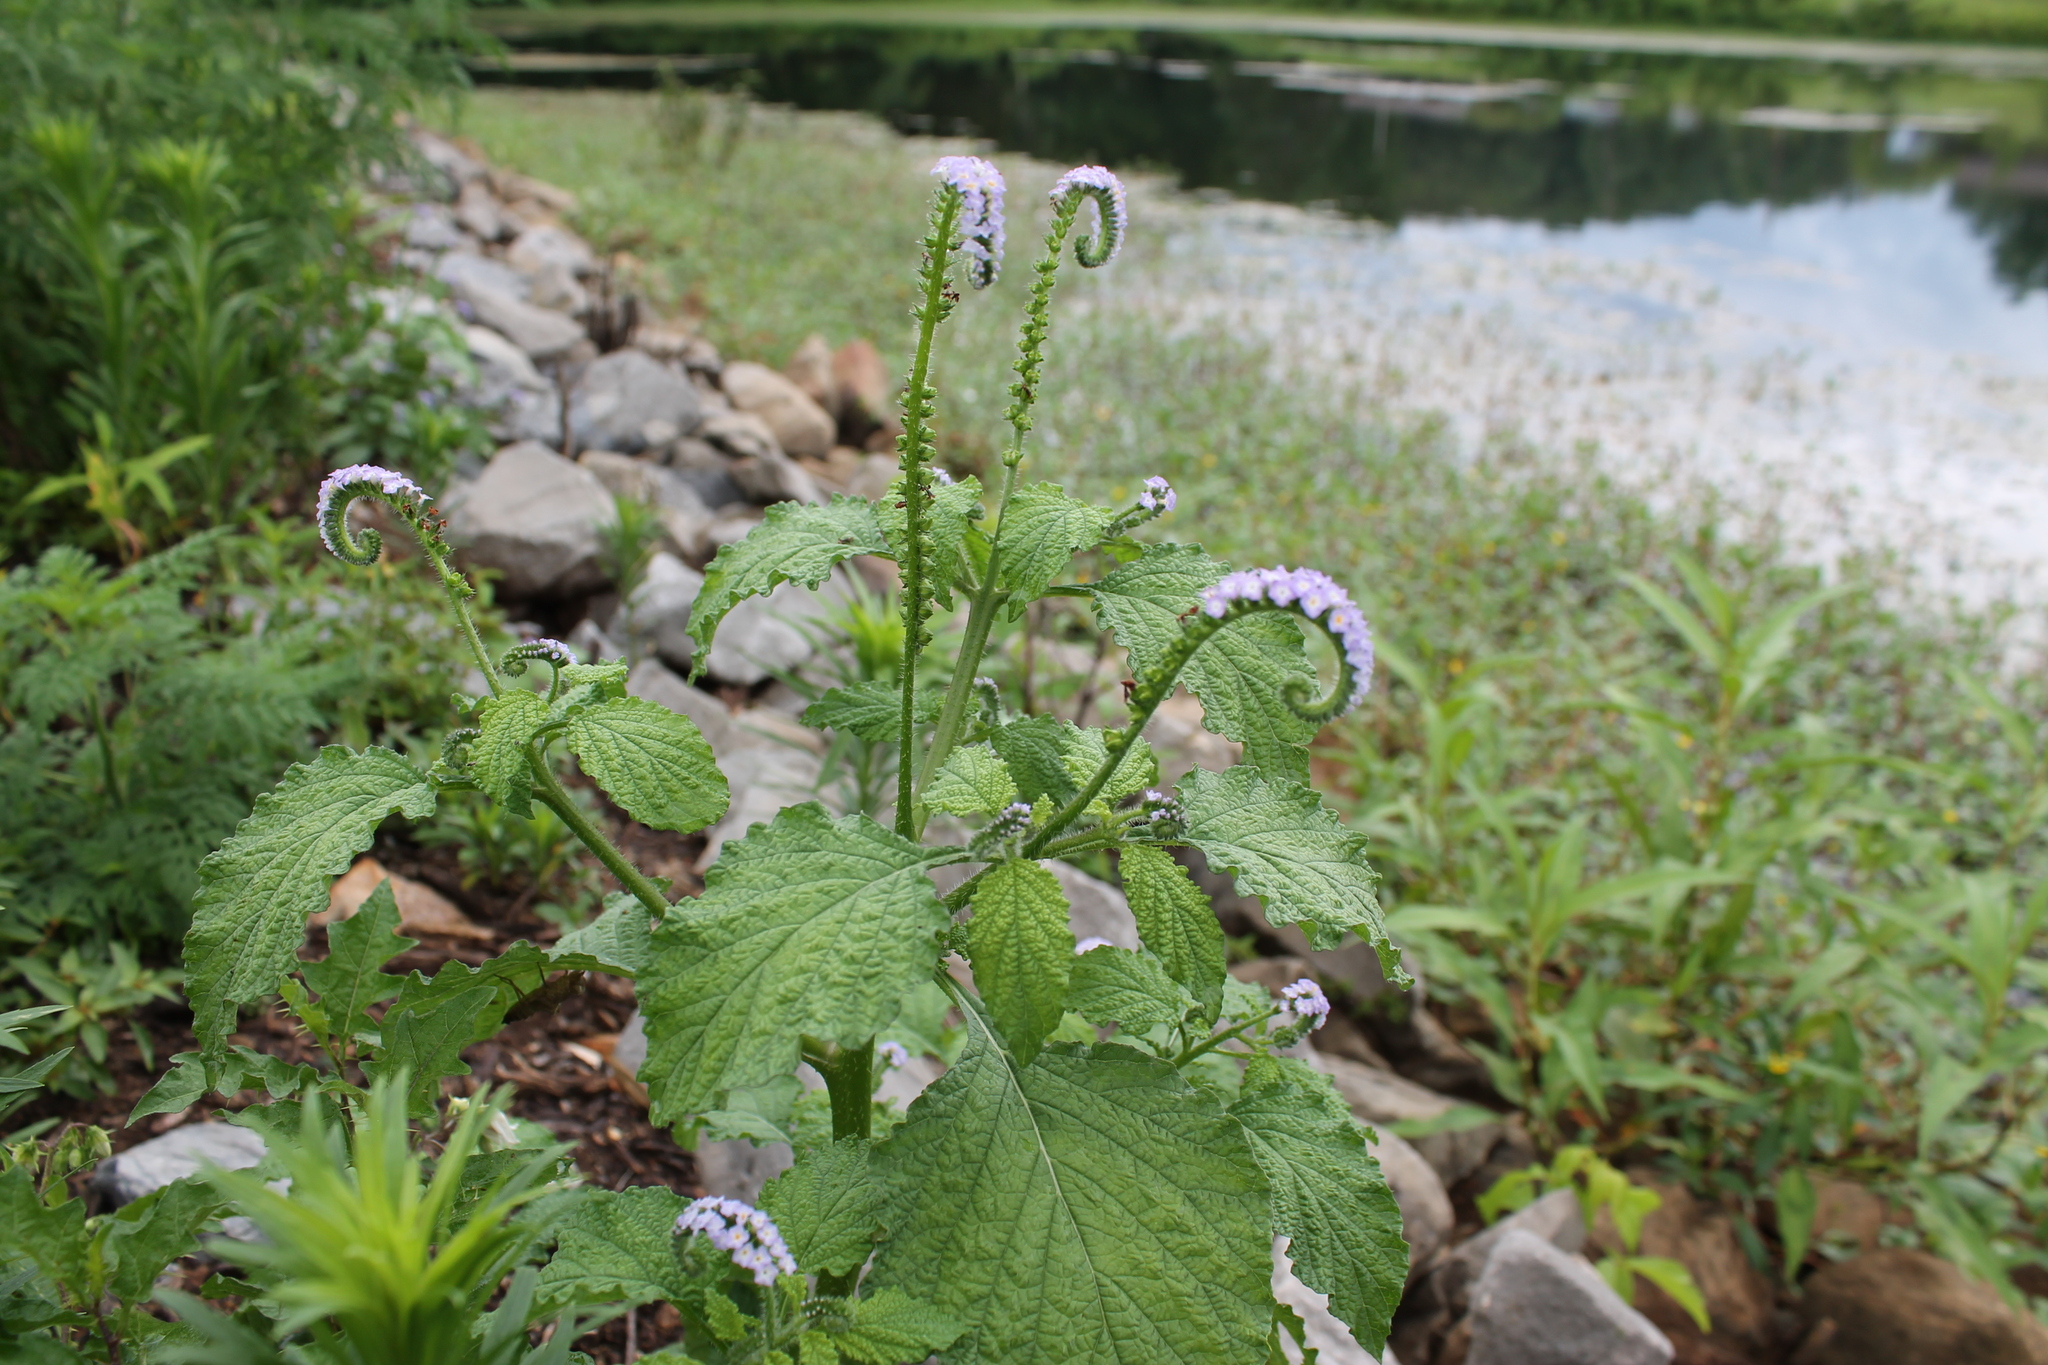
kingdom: Plantae
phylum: Tracheophyta
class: Magnoliopsida
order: Boraginales
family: Heliotropiaceae
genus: Heliotropium
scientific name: Heliotropium indicum
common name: Indian heliotrope
